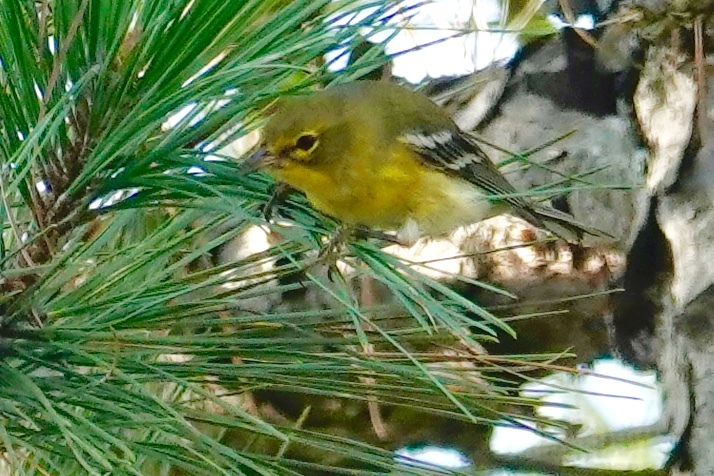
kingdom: Animalia
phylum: Chordata
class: Aves
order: Passeriformes
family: Parulidae
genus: Setophaga
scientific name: Setophaga pinus
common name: Pine warbler
